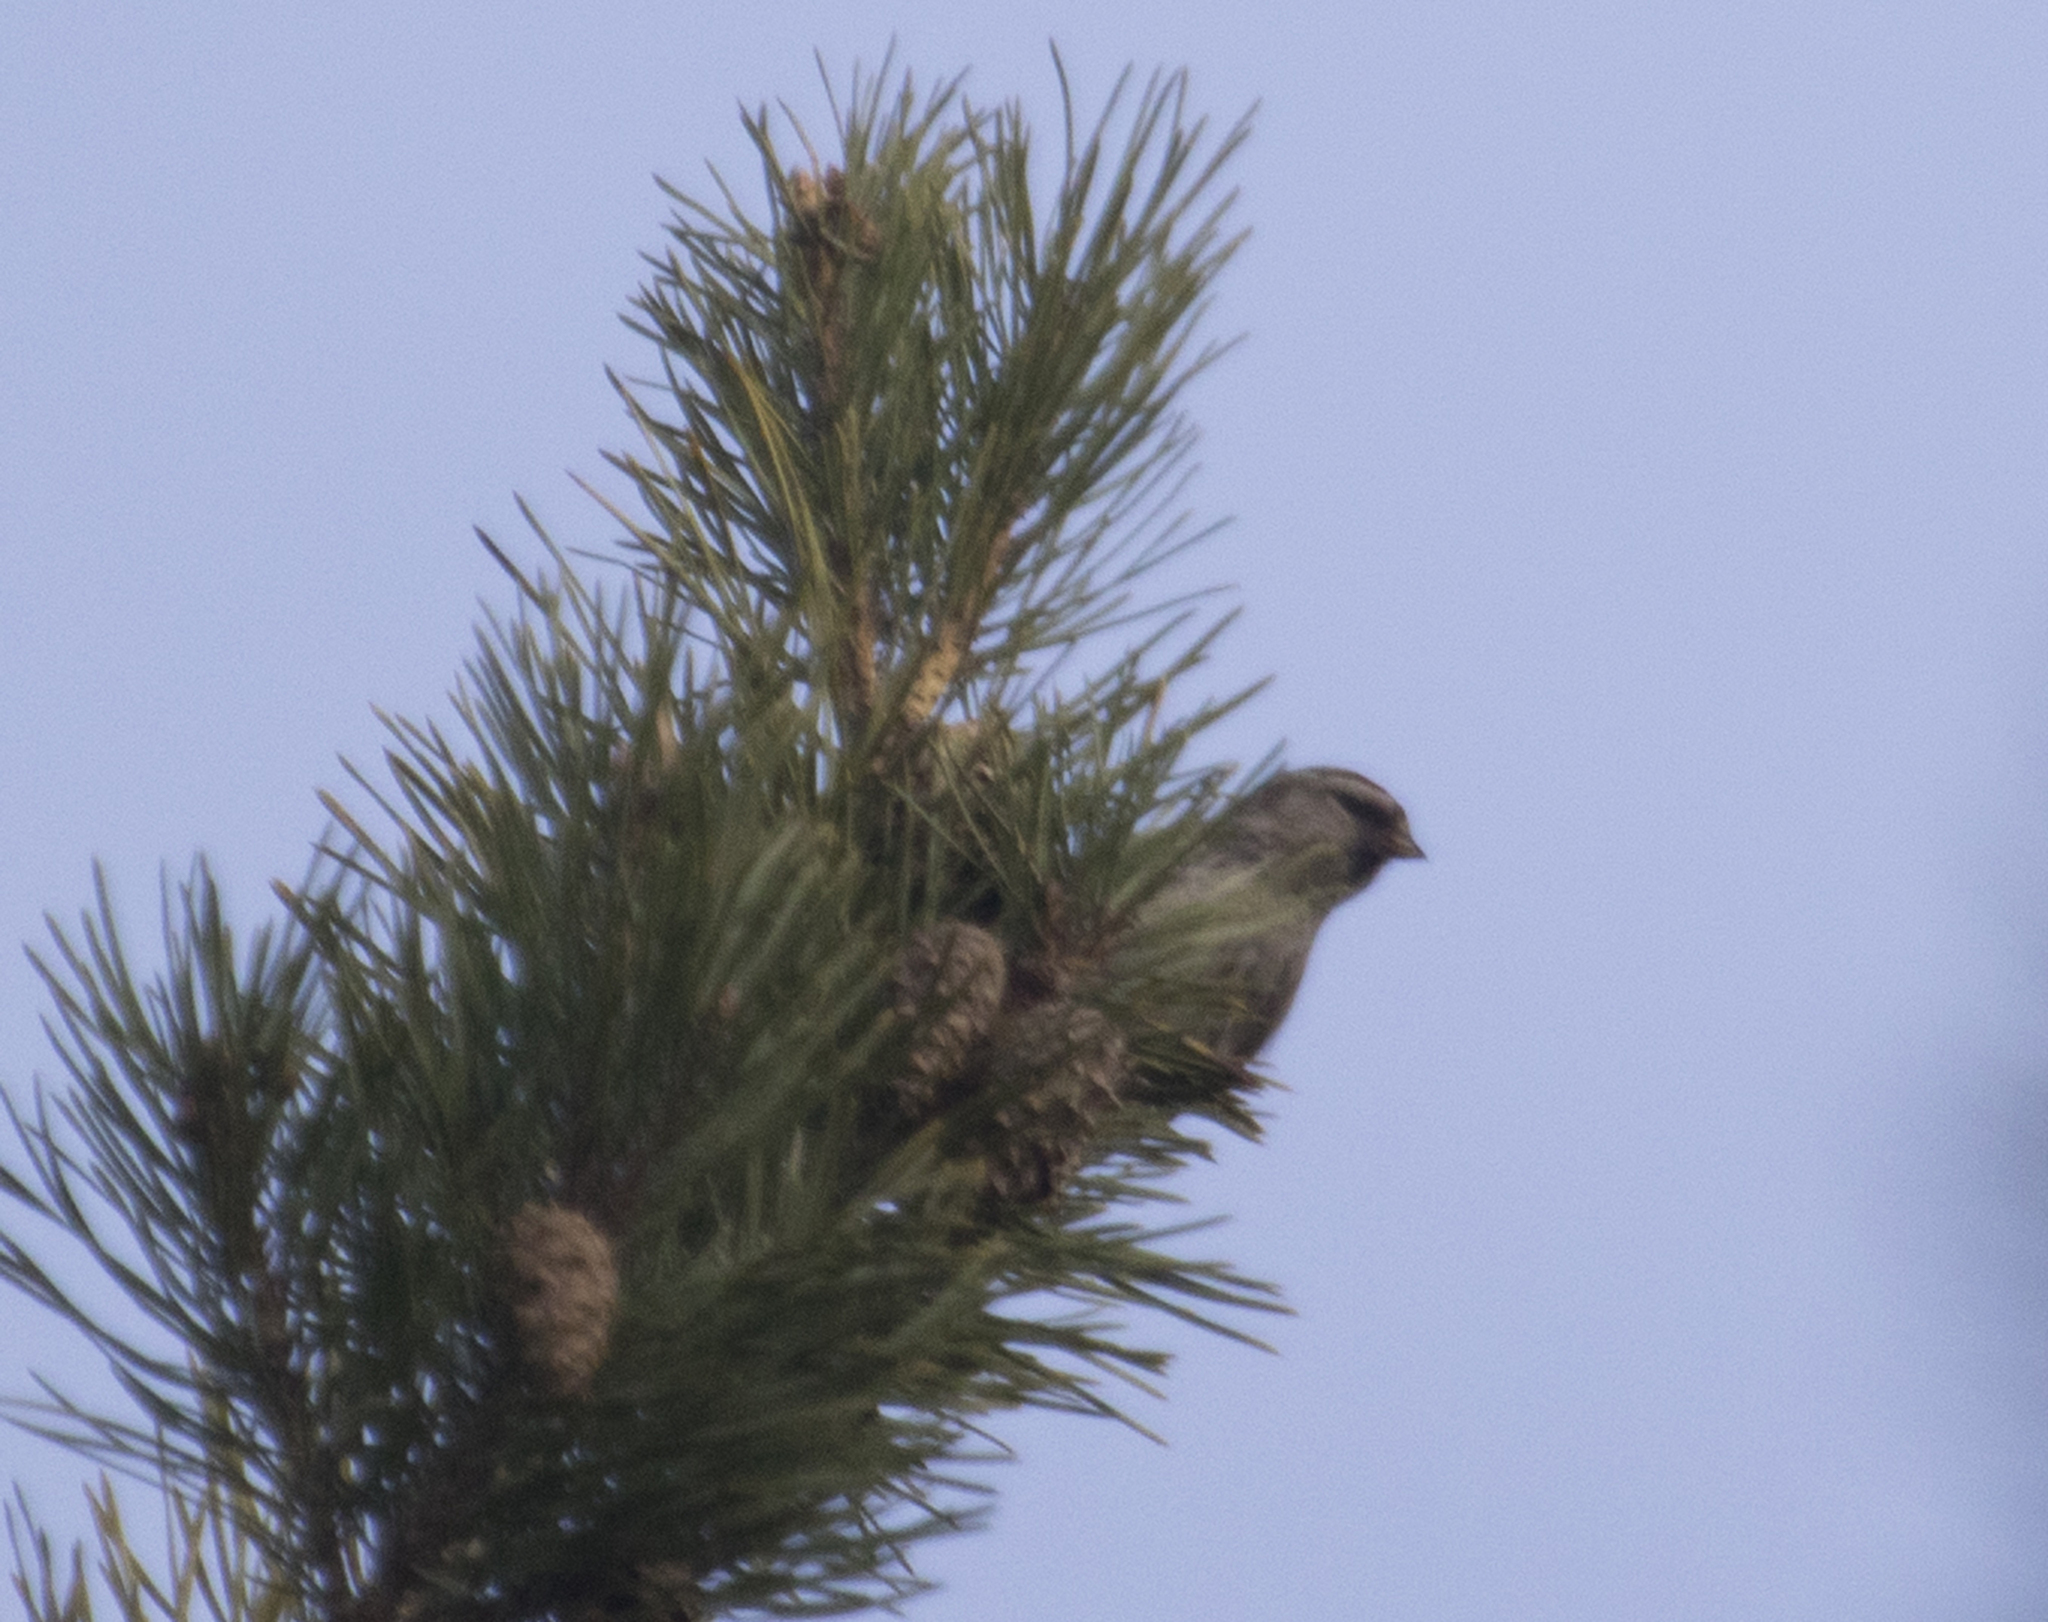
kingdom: Animalia
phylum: Chordata
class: Aves
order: Passeriformes
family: Fringillidae
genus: Acanthis
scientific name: Acanthis flammea
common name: Common redpoll
